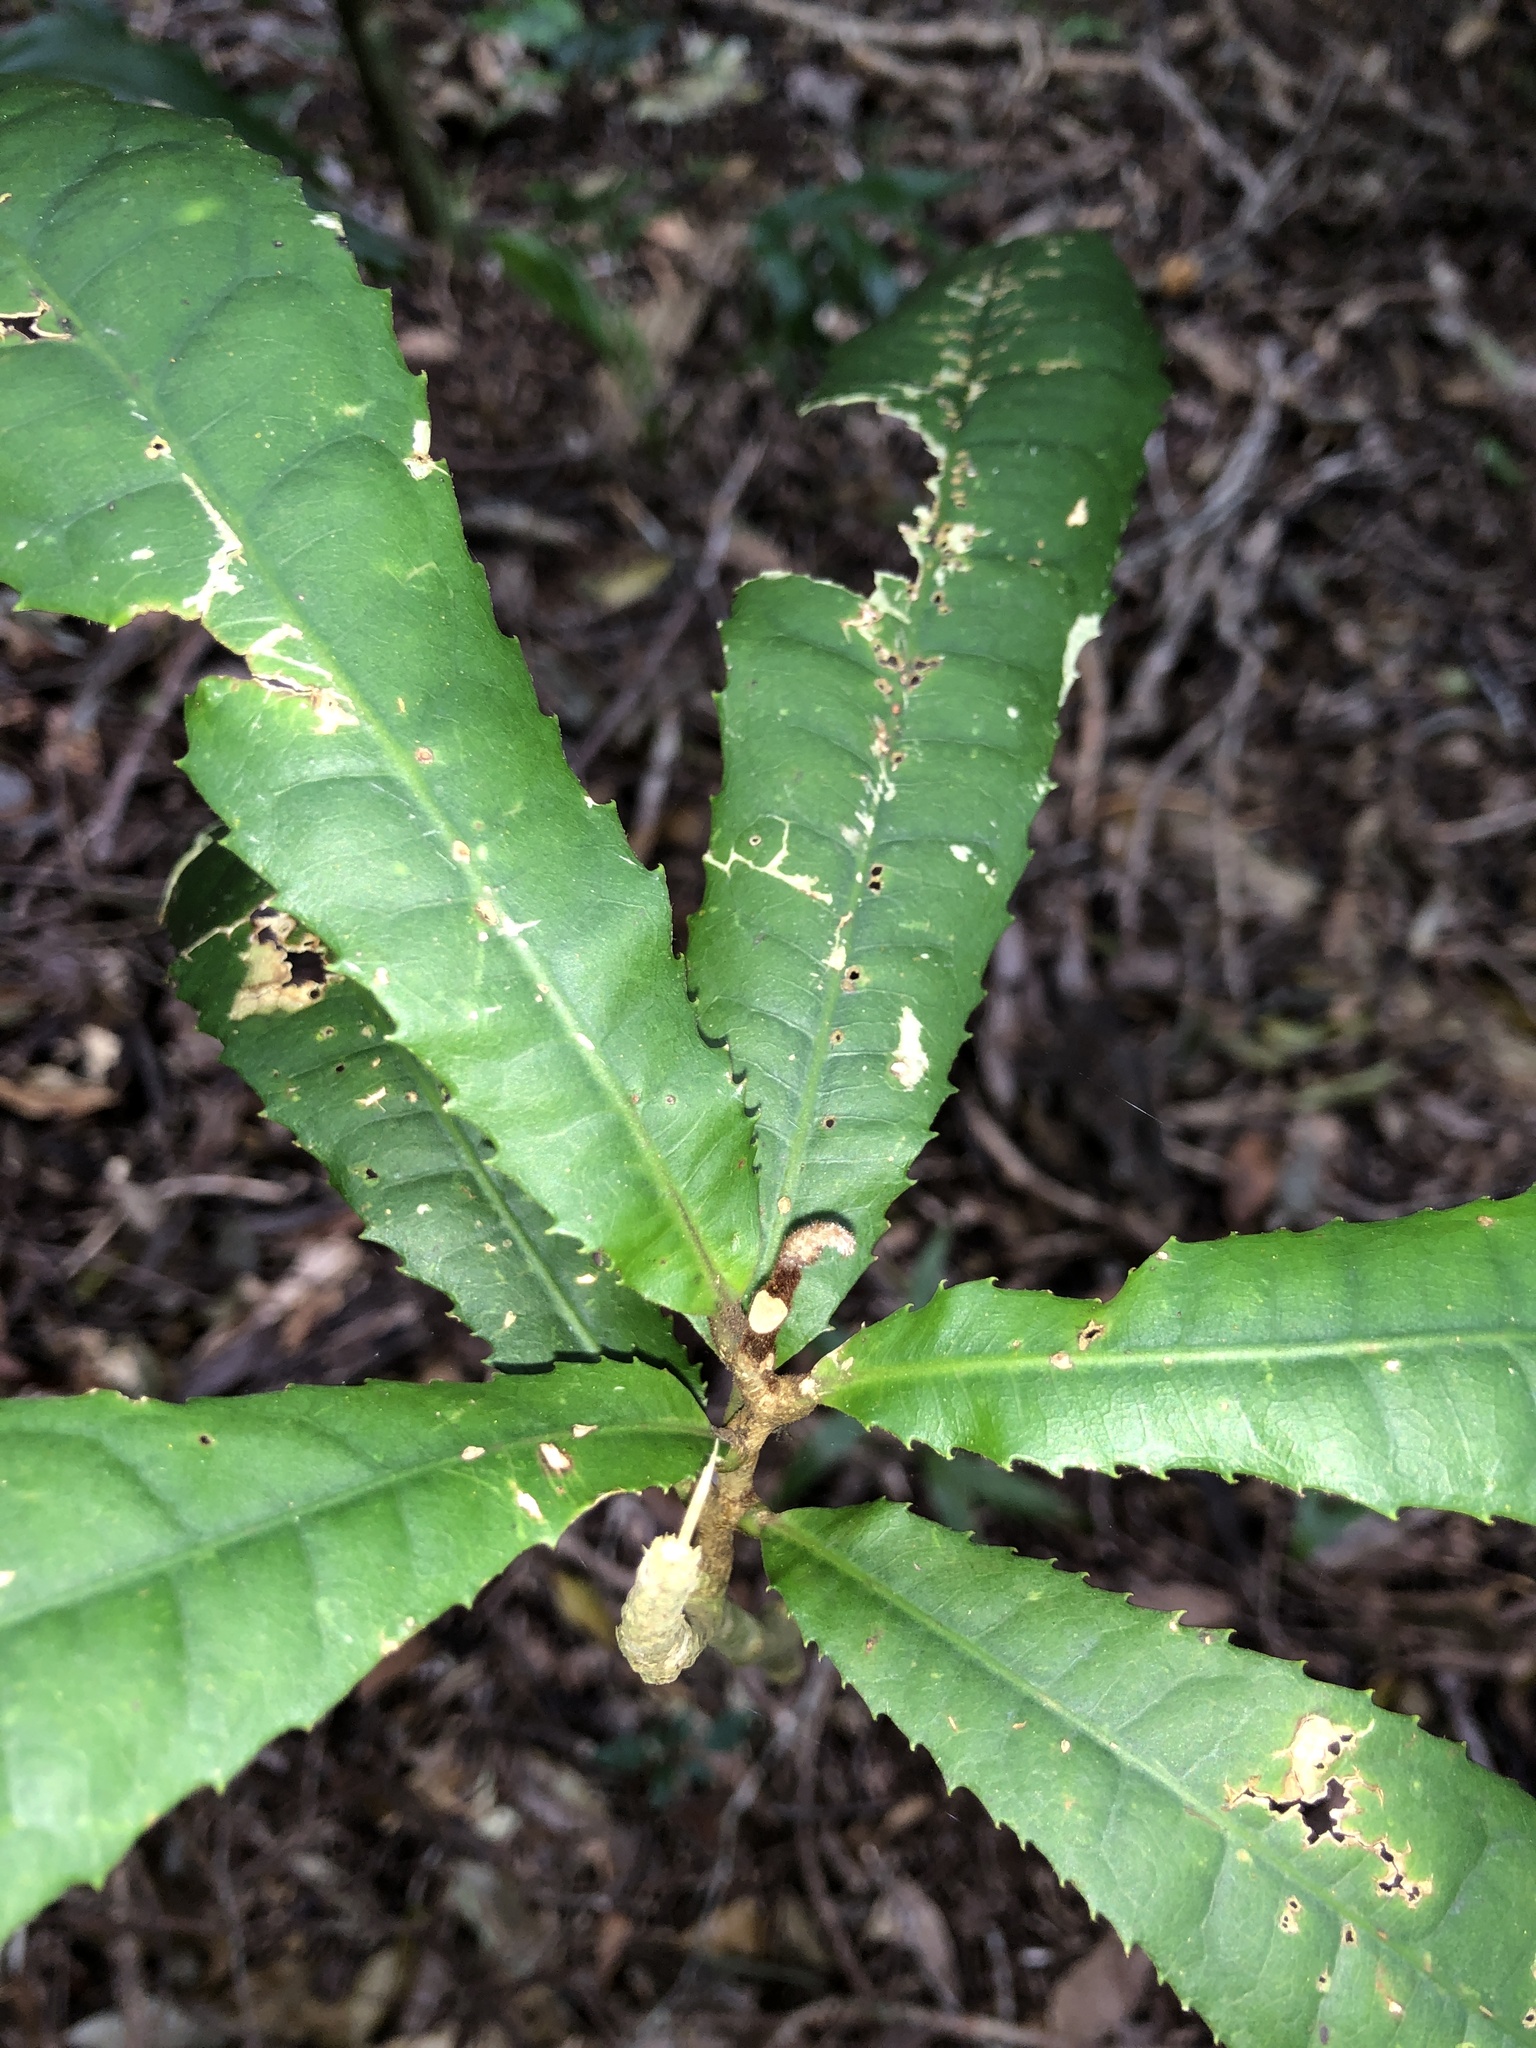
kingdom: Plantae
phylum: Tracheophyta
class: Magnoliopsida
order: Proteales
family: Proteaceae
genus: Helicia
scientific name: Helicia ferruginea
